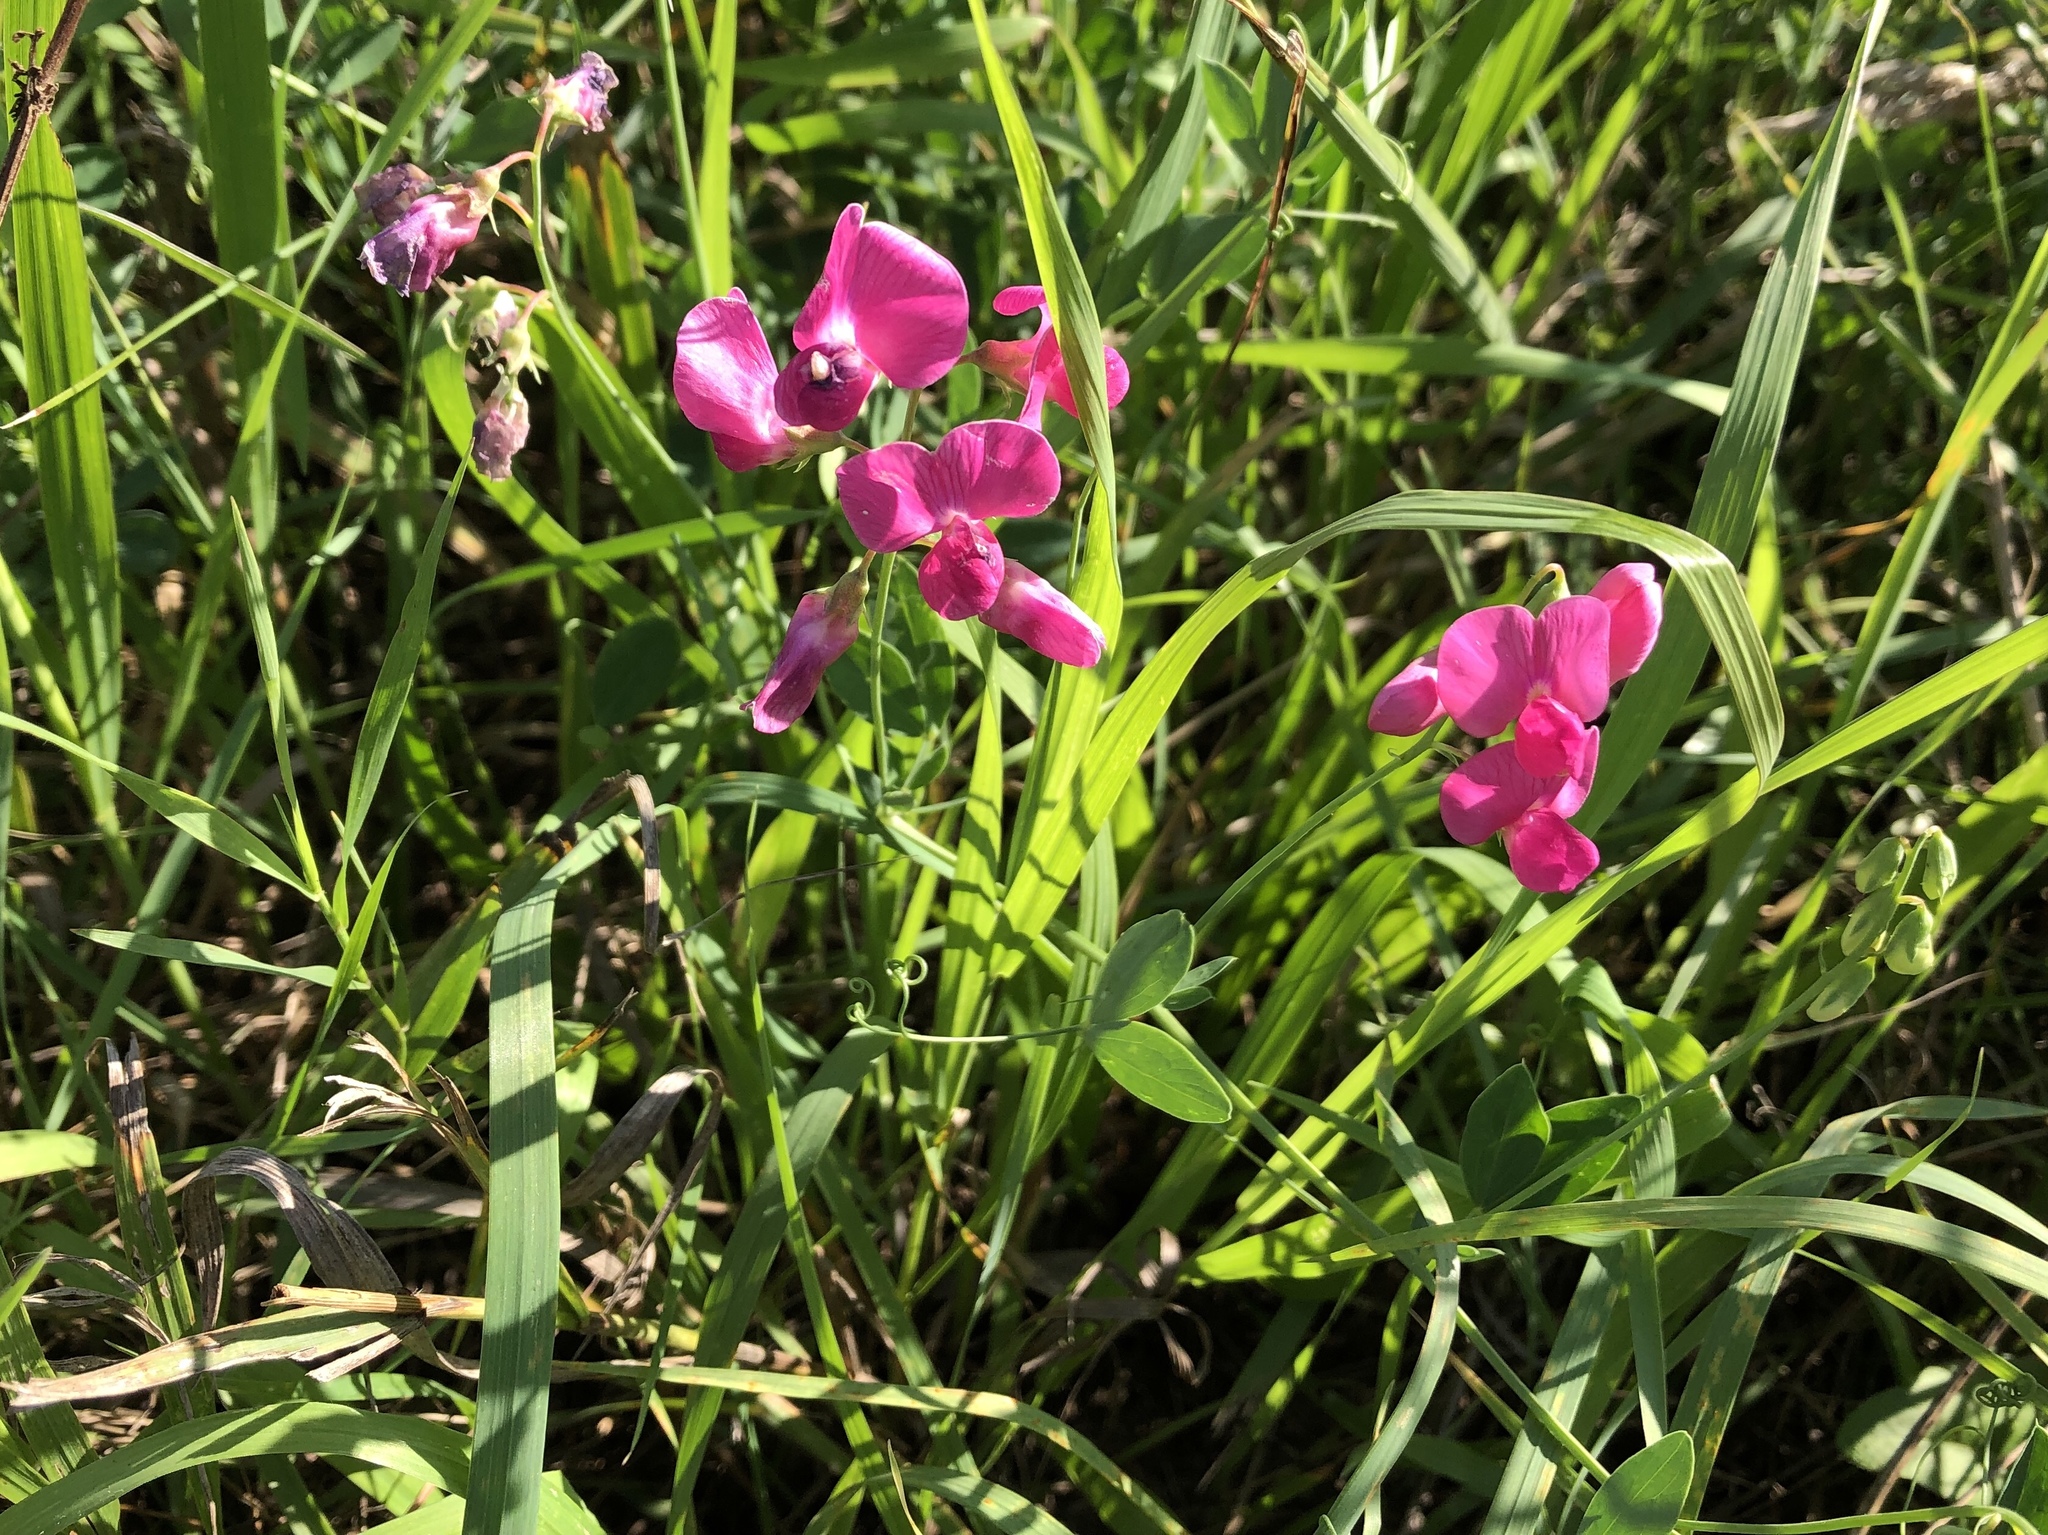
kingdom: Plantae
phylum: Tracheophyta
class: Magnoliopsida
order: Fabales
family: Fabaceae
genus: Lathyrus
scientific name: Lathyrus tuberosus
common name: Tuberous pea
